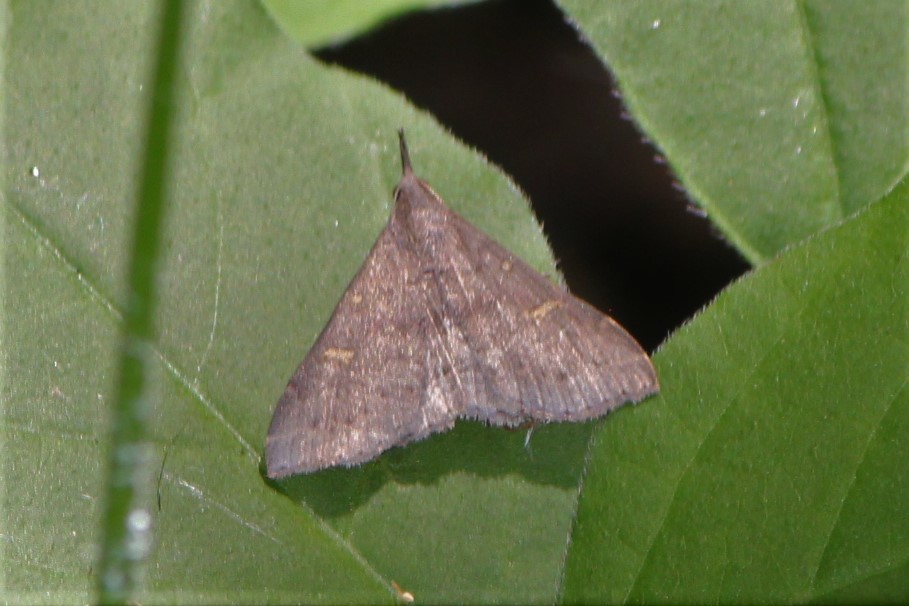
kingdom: Animalia
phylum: Arthropoda
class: Insecta
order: Lepidoptera
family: Erebidae
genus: Renia
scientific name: Renia adspergillus
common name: Speckled renia moth
